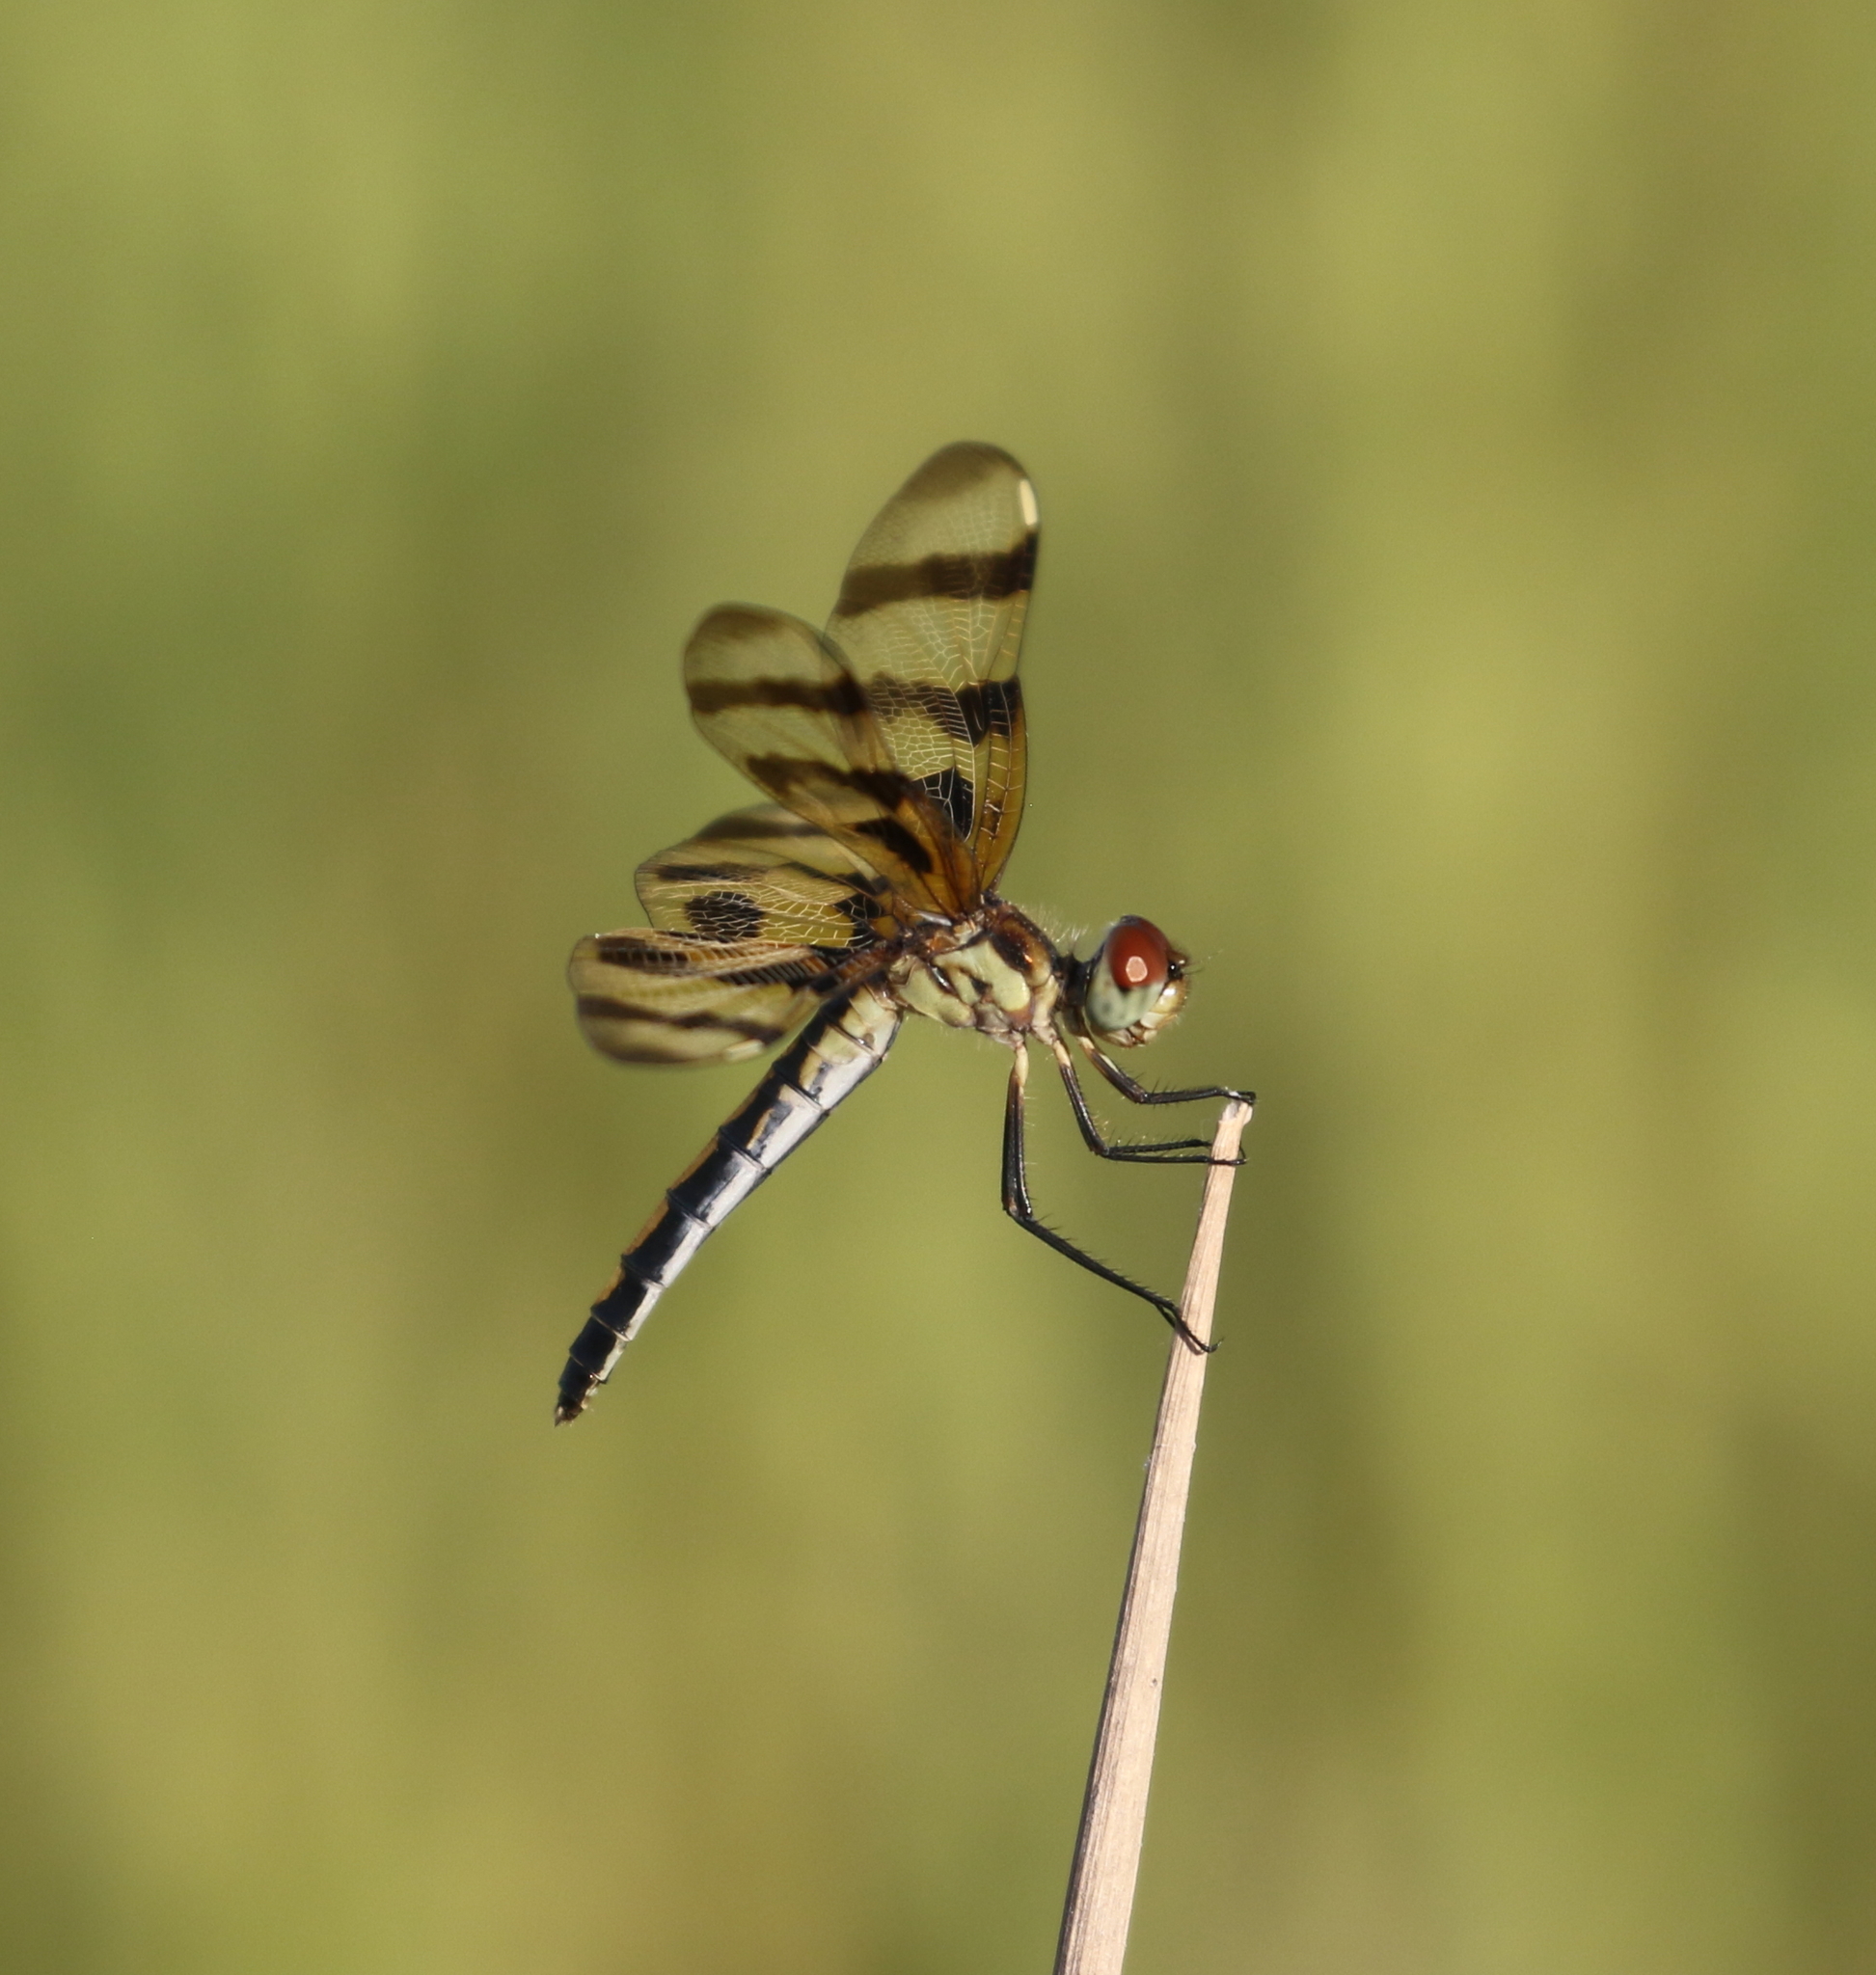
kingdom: Animalia
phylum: Arthropoda
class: Insecta
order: Odonata
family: Libellulidae
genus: Celithemis
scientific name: Celithemis eponina
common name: Halloween pennant
